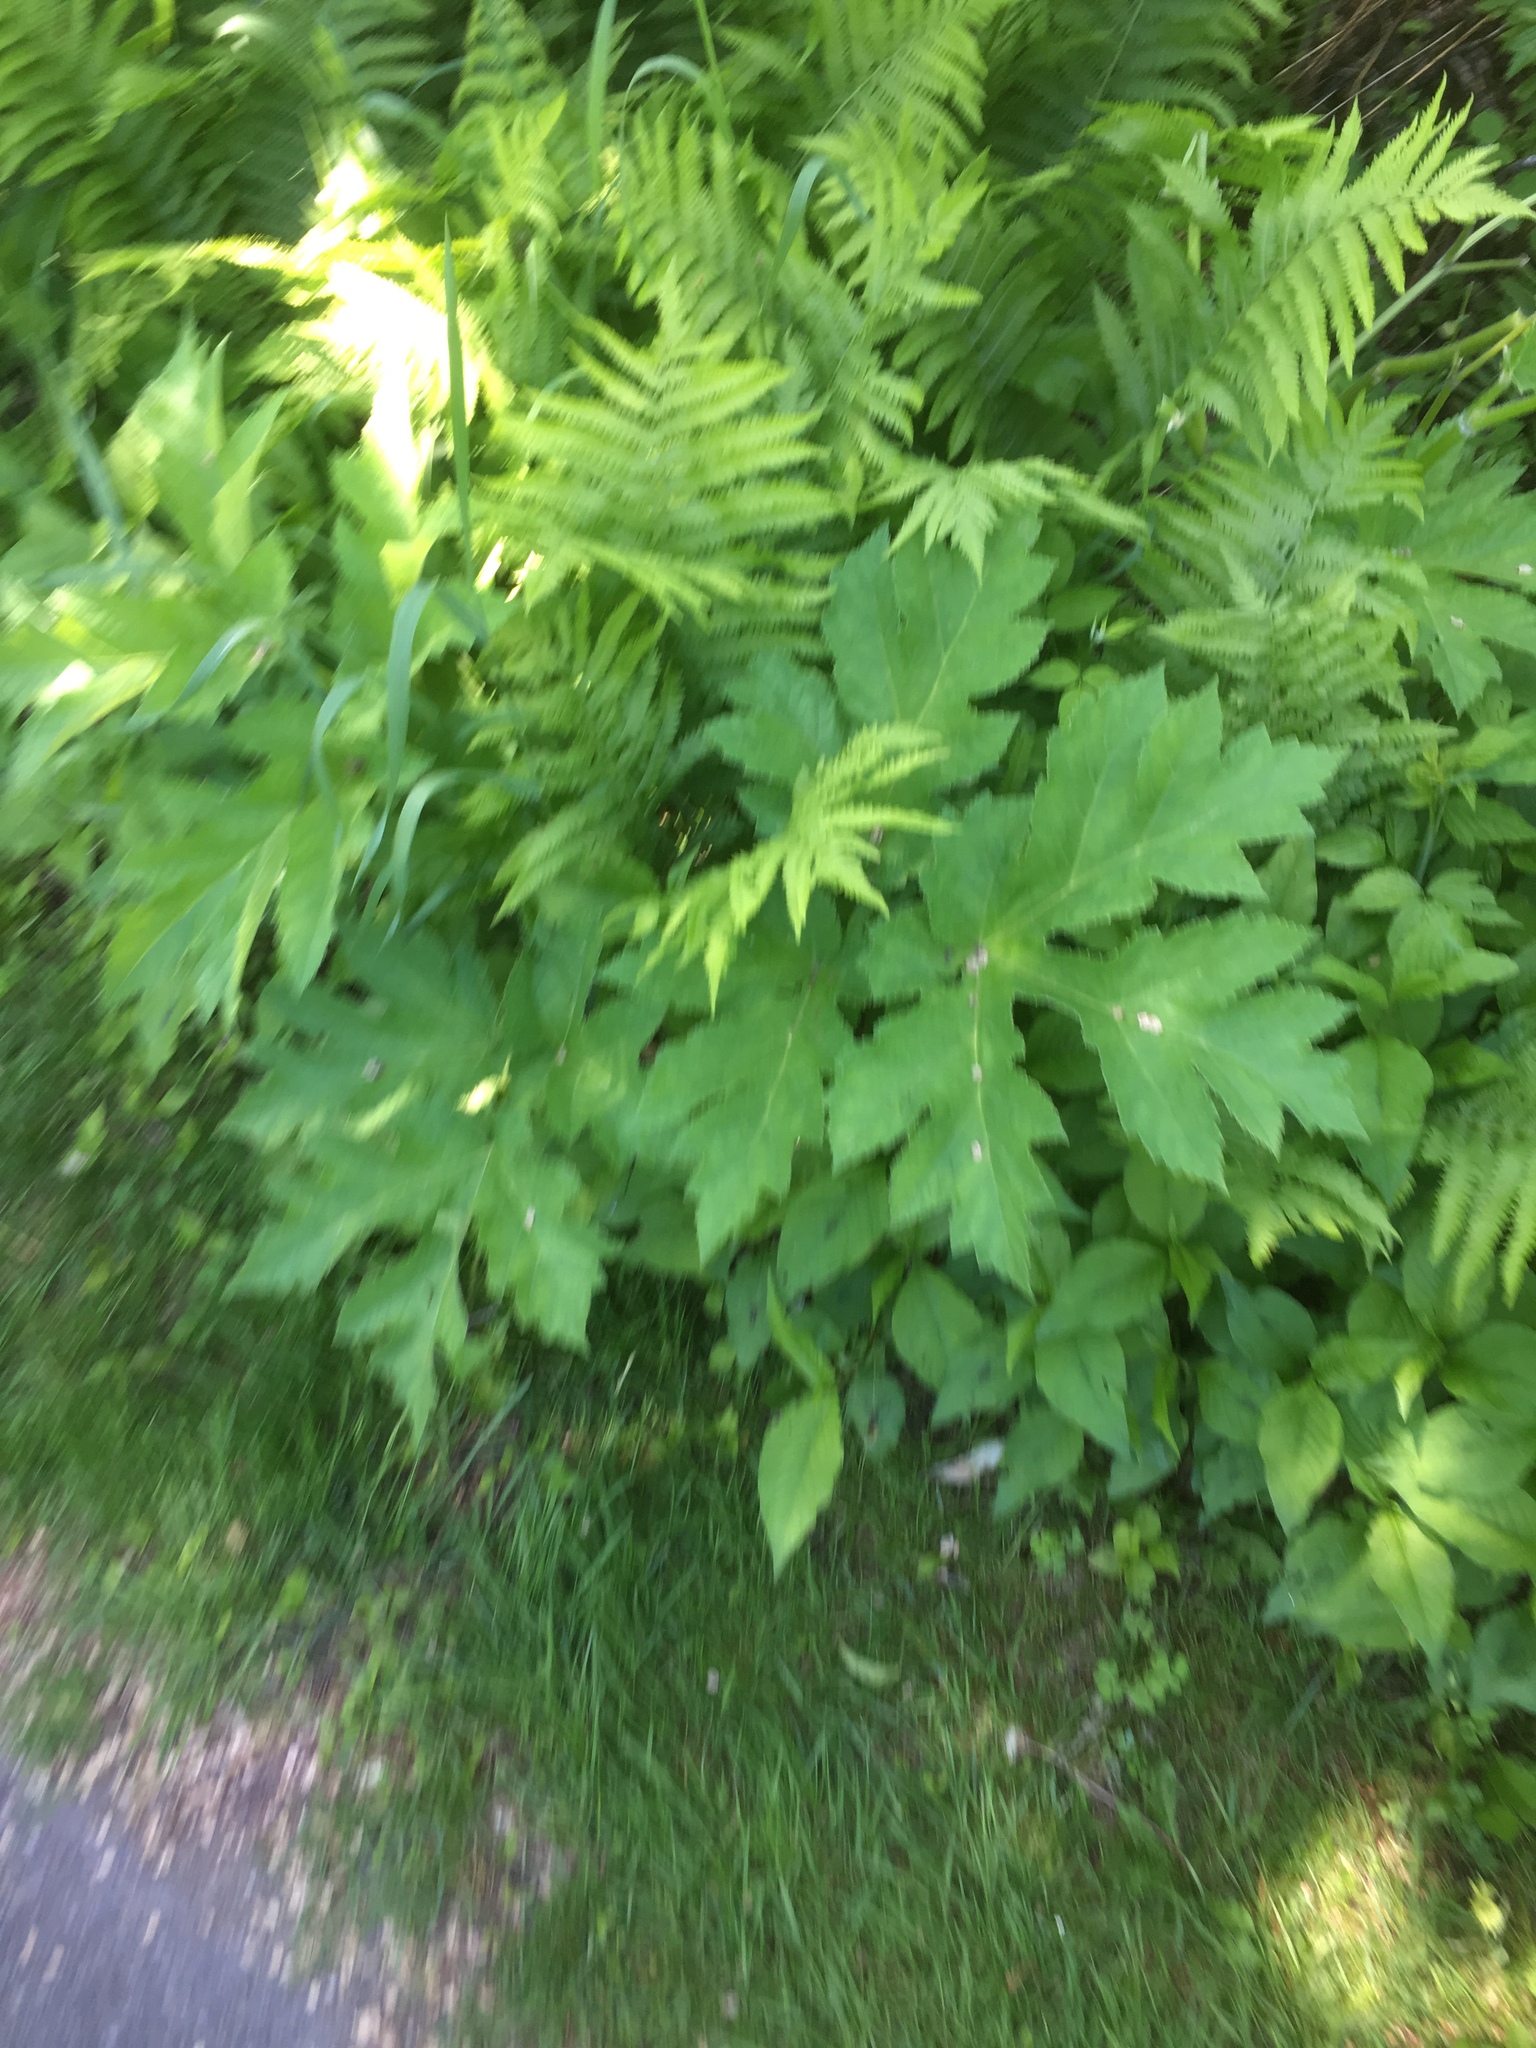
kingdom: Plantae
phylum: Tracheophyta
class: Magnoliopsida
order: Apiales
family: Apiaceae
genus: Heracleum
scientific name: Heracleum maximum
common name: American cow parsnip
